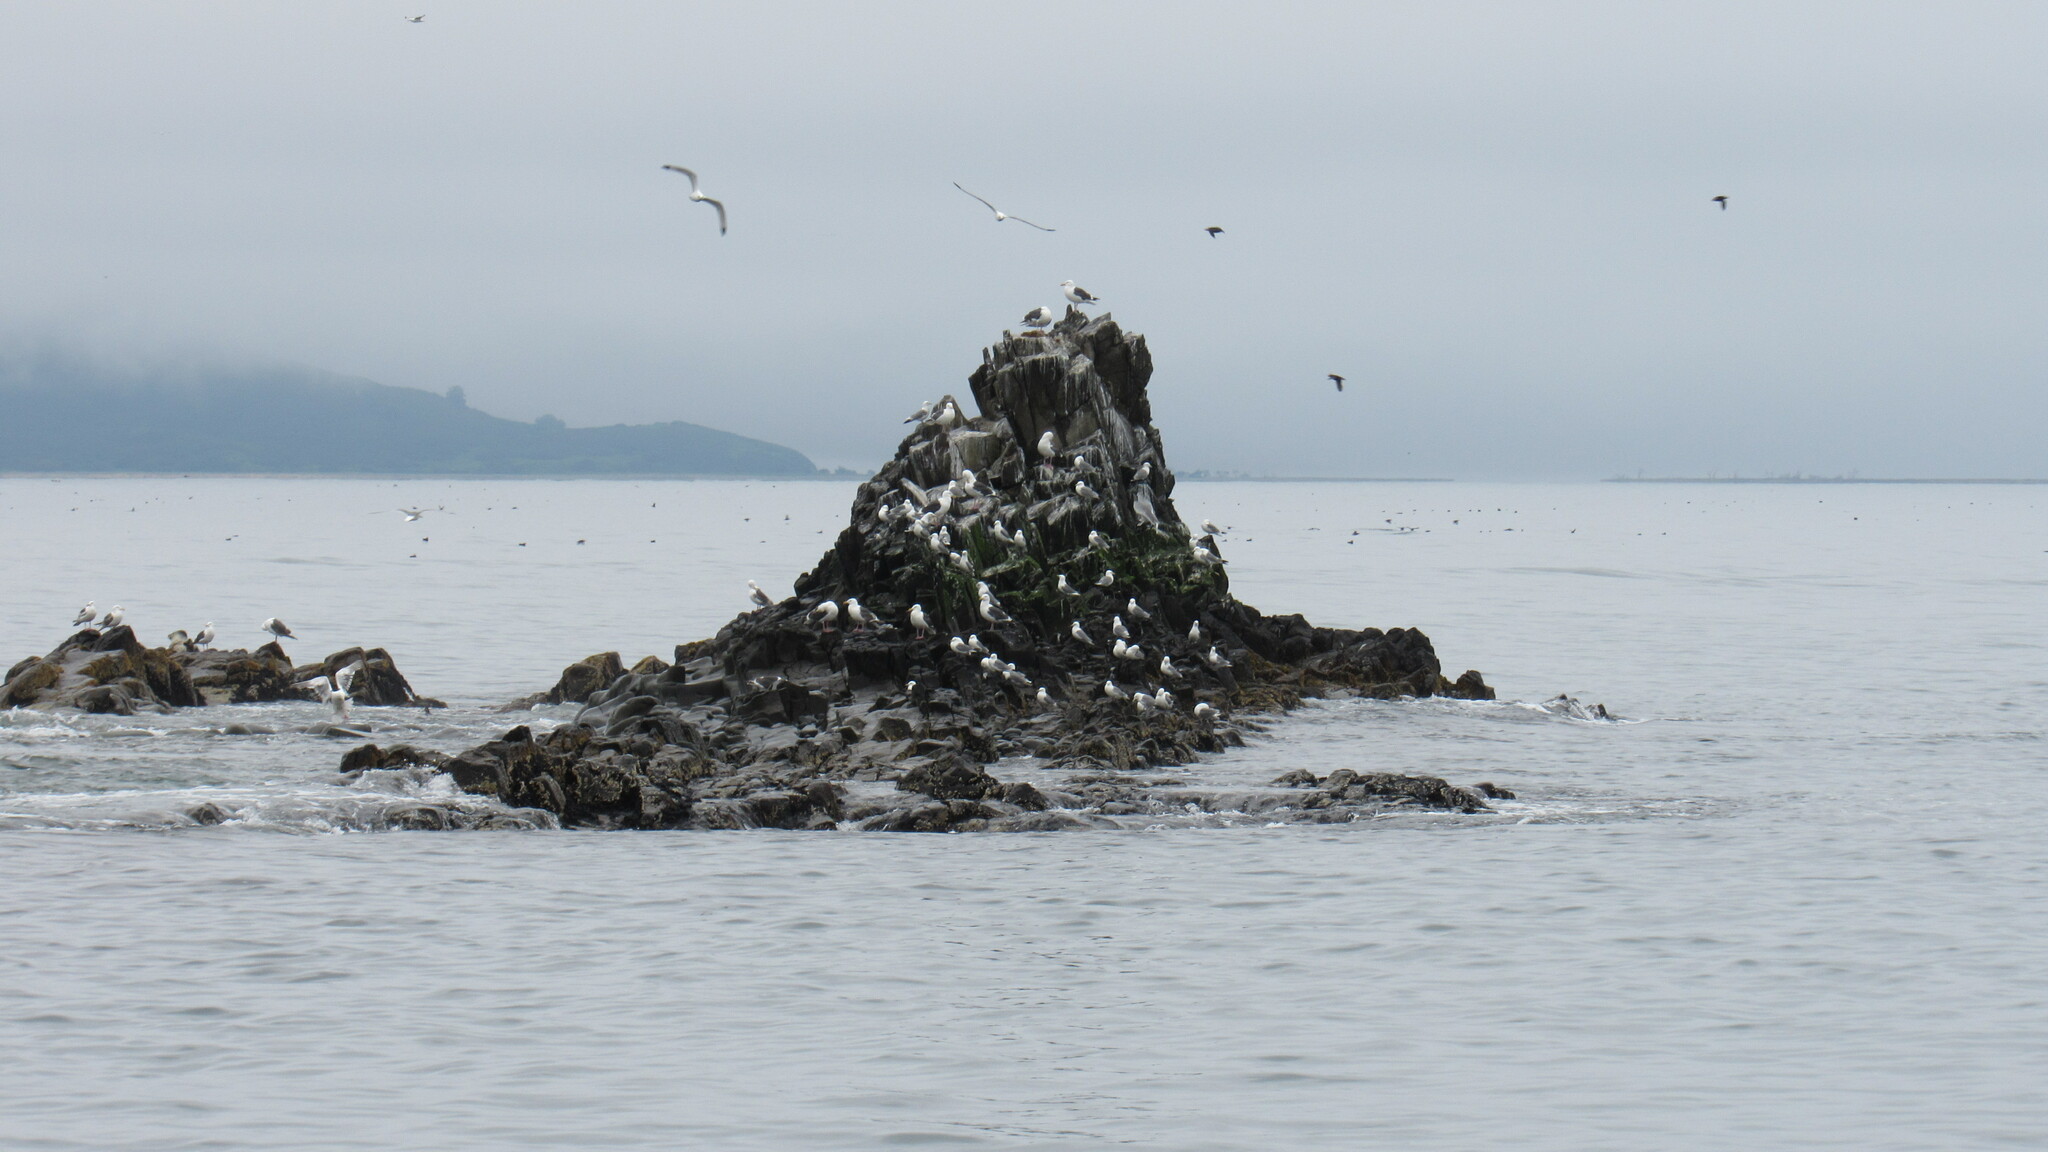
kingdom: Animalia
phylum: Chordata
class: Aves
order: Charadriiformes
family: Laridae
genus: Larus
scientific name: Larus schistisagus
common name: Slaty-backed gull
